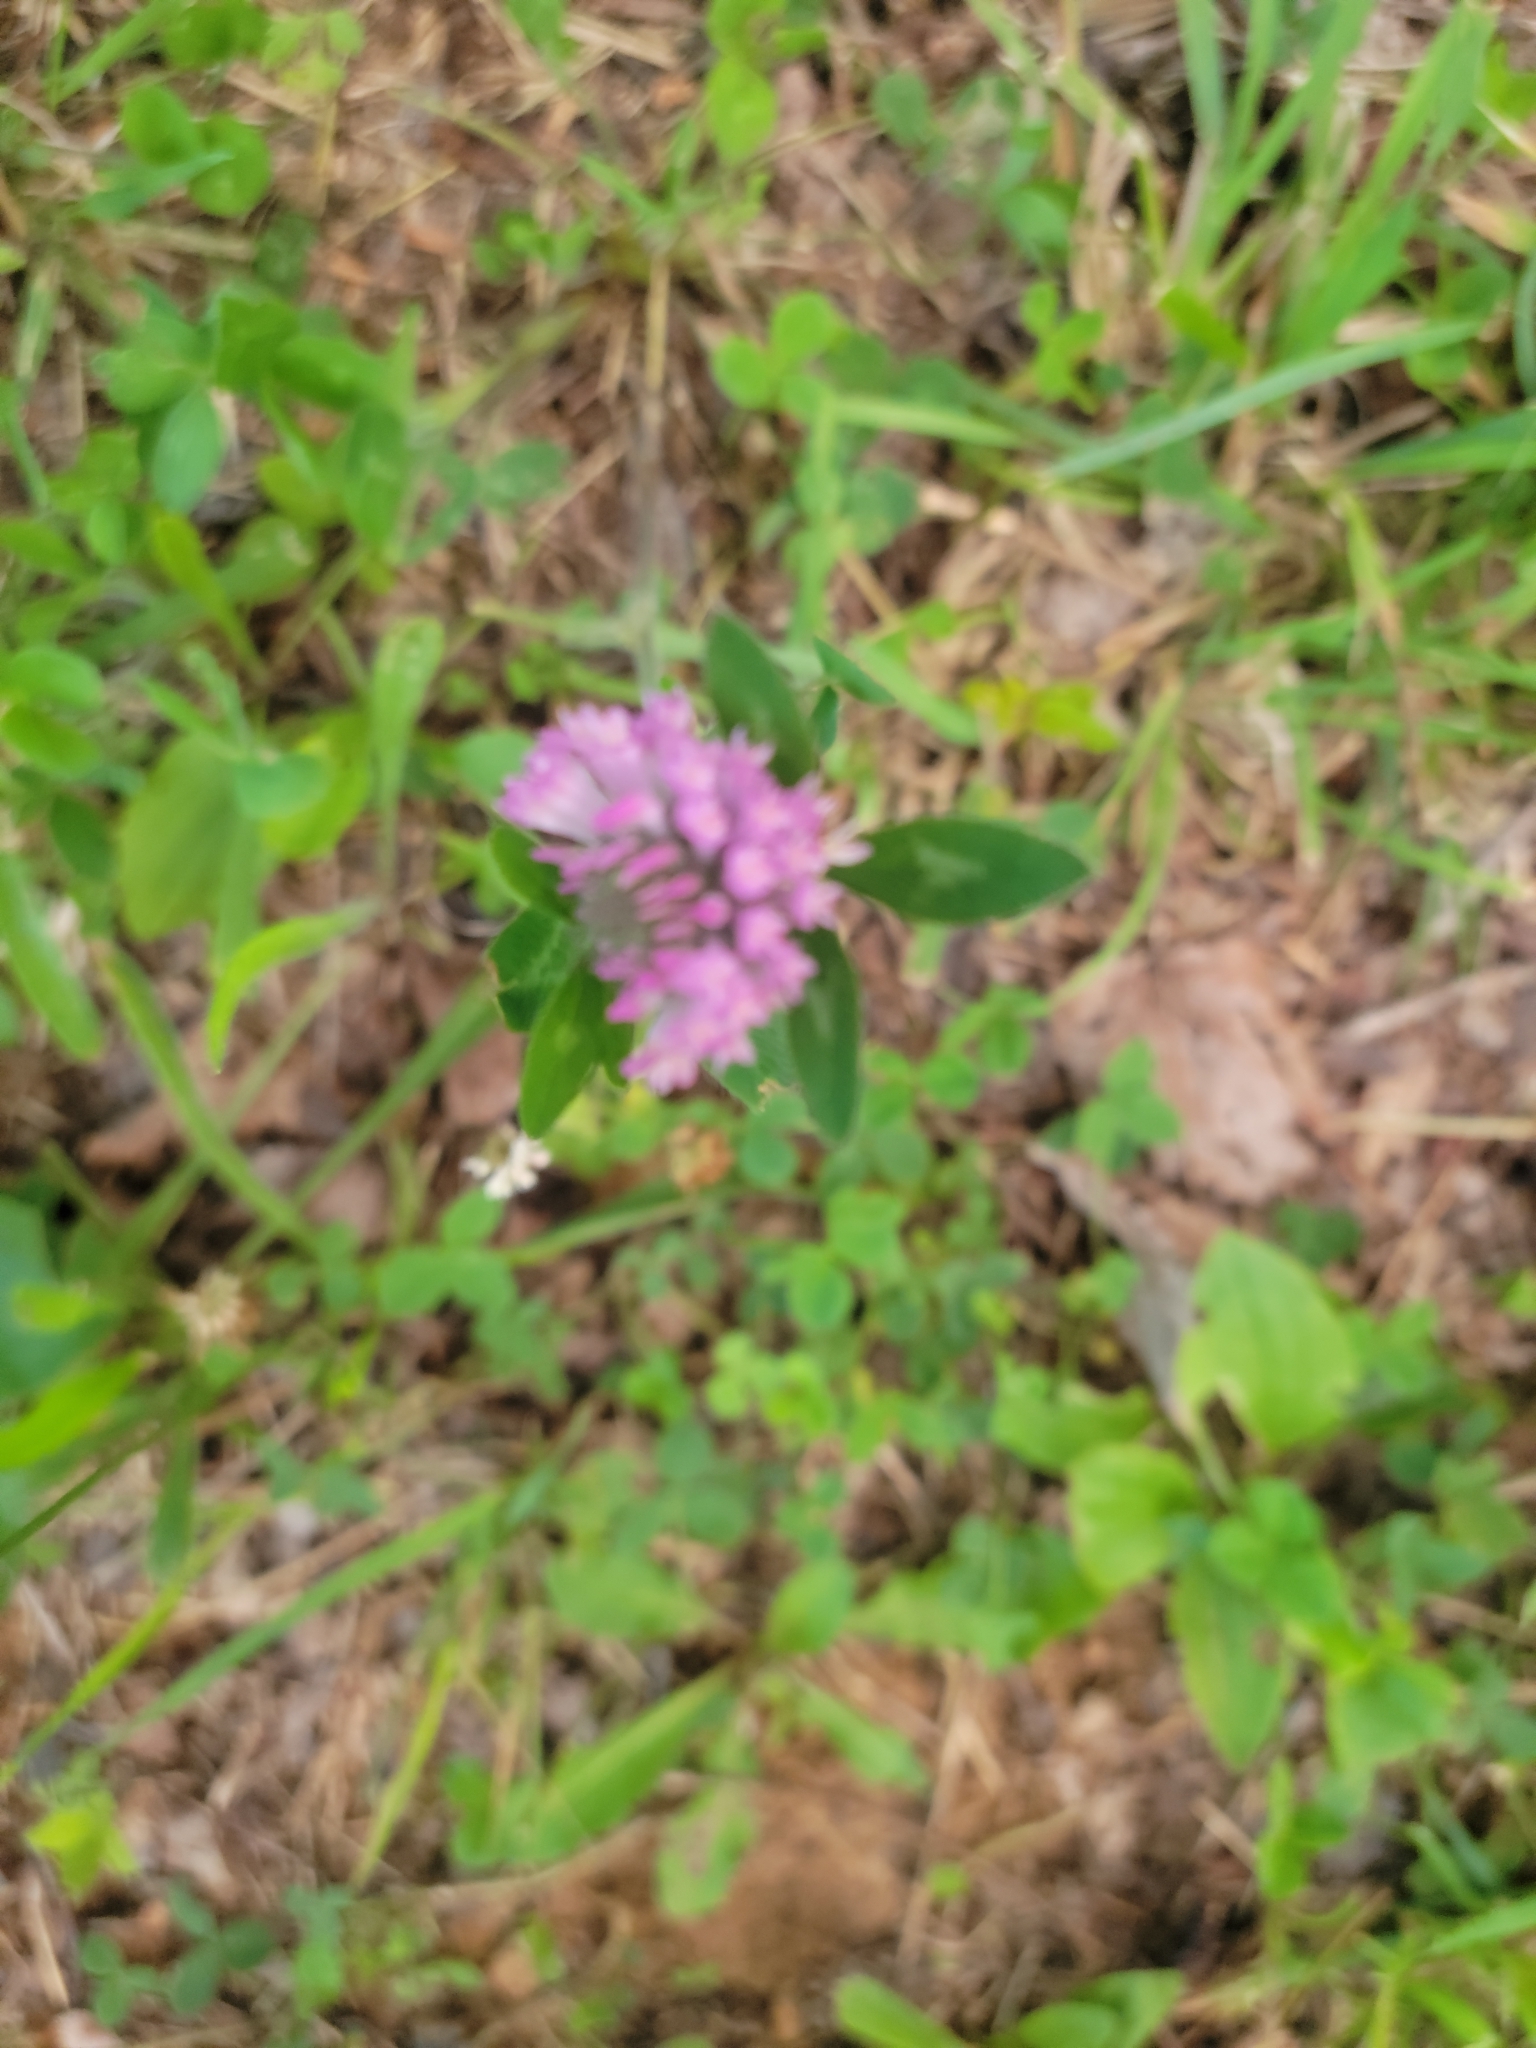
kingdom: Plantae
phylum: Tracheophyta
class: Magnoliopsida
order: Fabales
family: Fabaceae
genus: Trifolium
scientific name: Trifolium pratense
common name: Red clover
